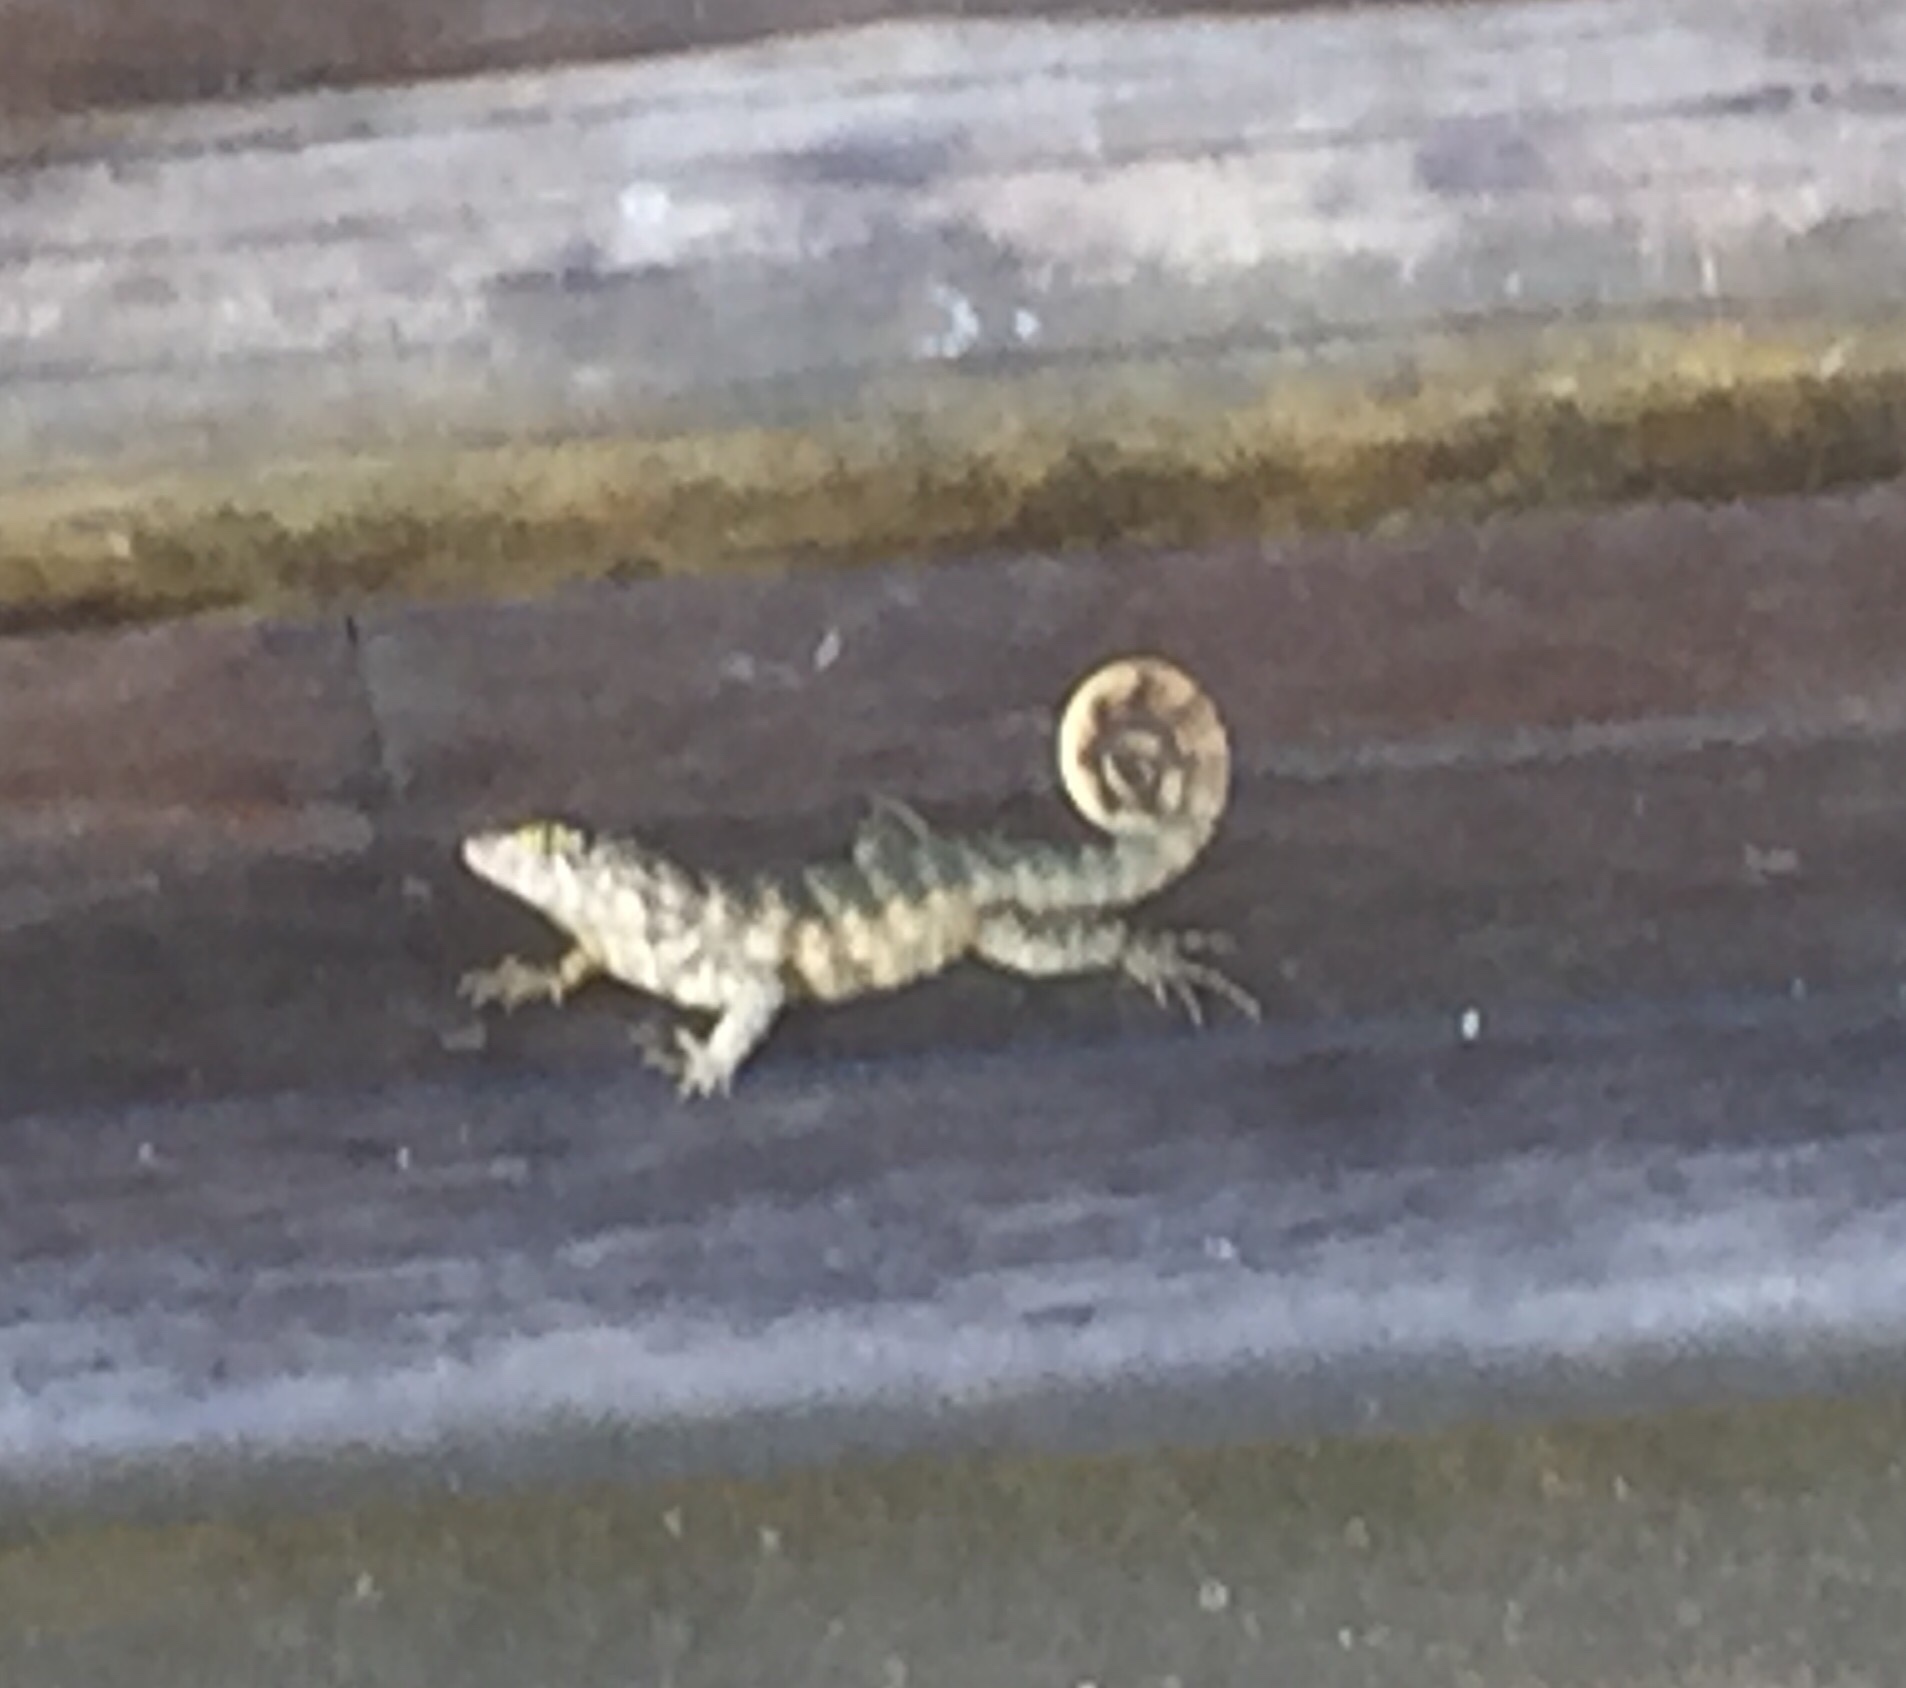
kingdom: Animalia
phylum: Chordata
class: Squamata
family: Leiocephalidae
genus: Leiocephalus
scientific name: Leiocephalus carinatus
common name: Northern curly-tailed lizard
